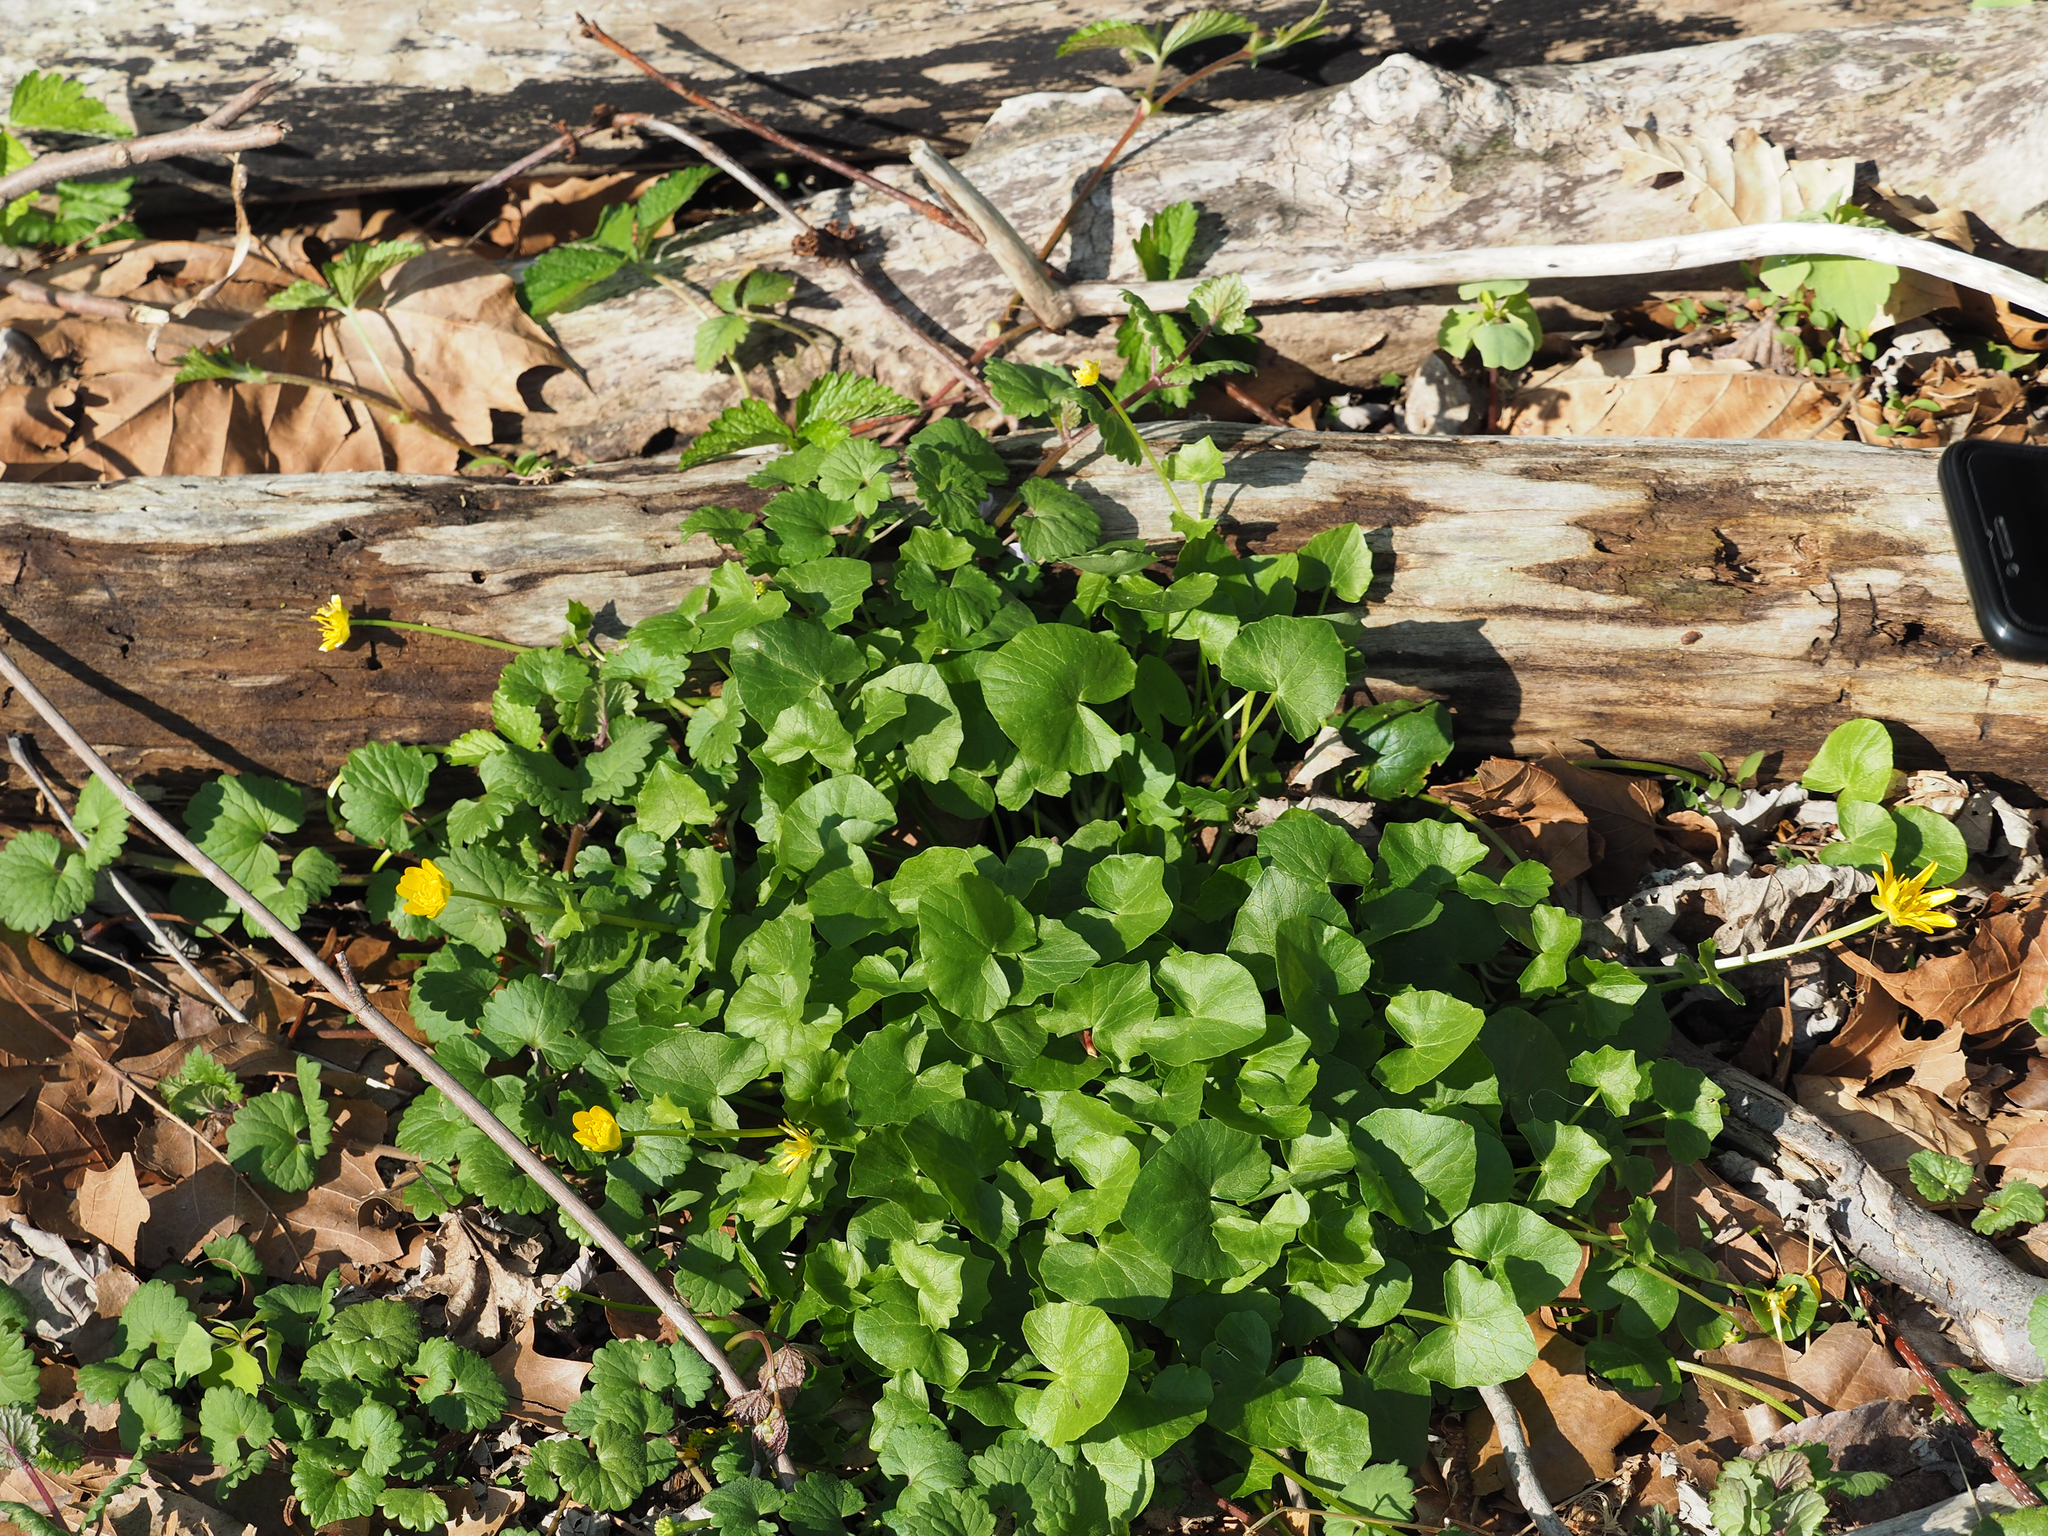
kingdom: Plantae
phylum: Tracheophyta
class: Magnoliopsida
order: Ranunculales
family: Ranunculaceae
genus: Ficaria
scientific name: Ficaria verna
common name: Lesser celandine
